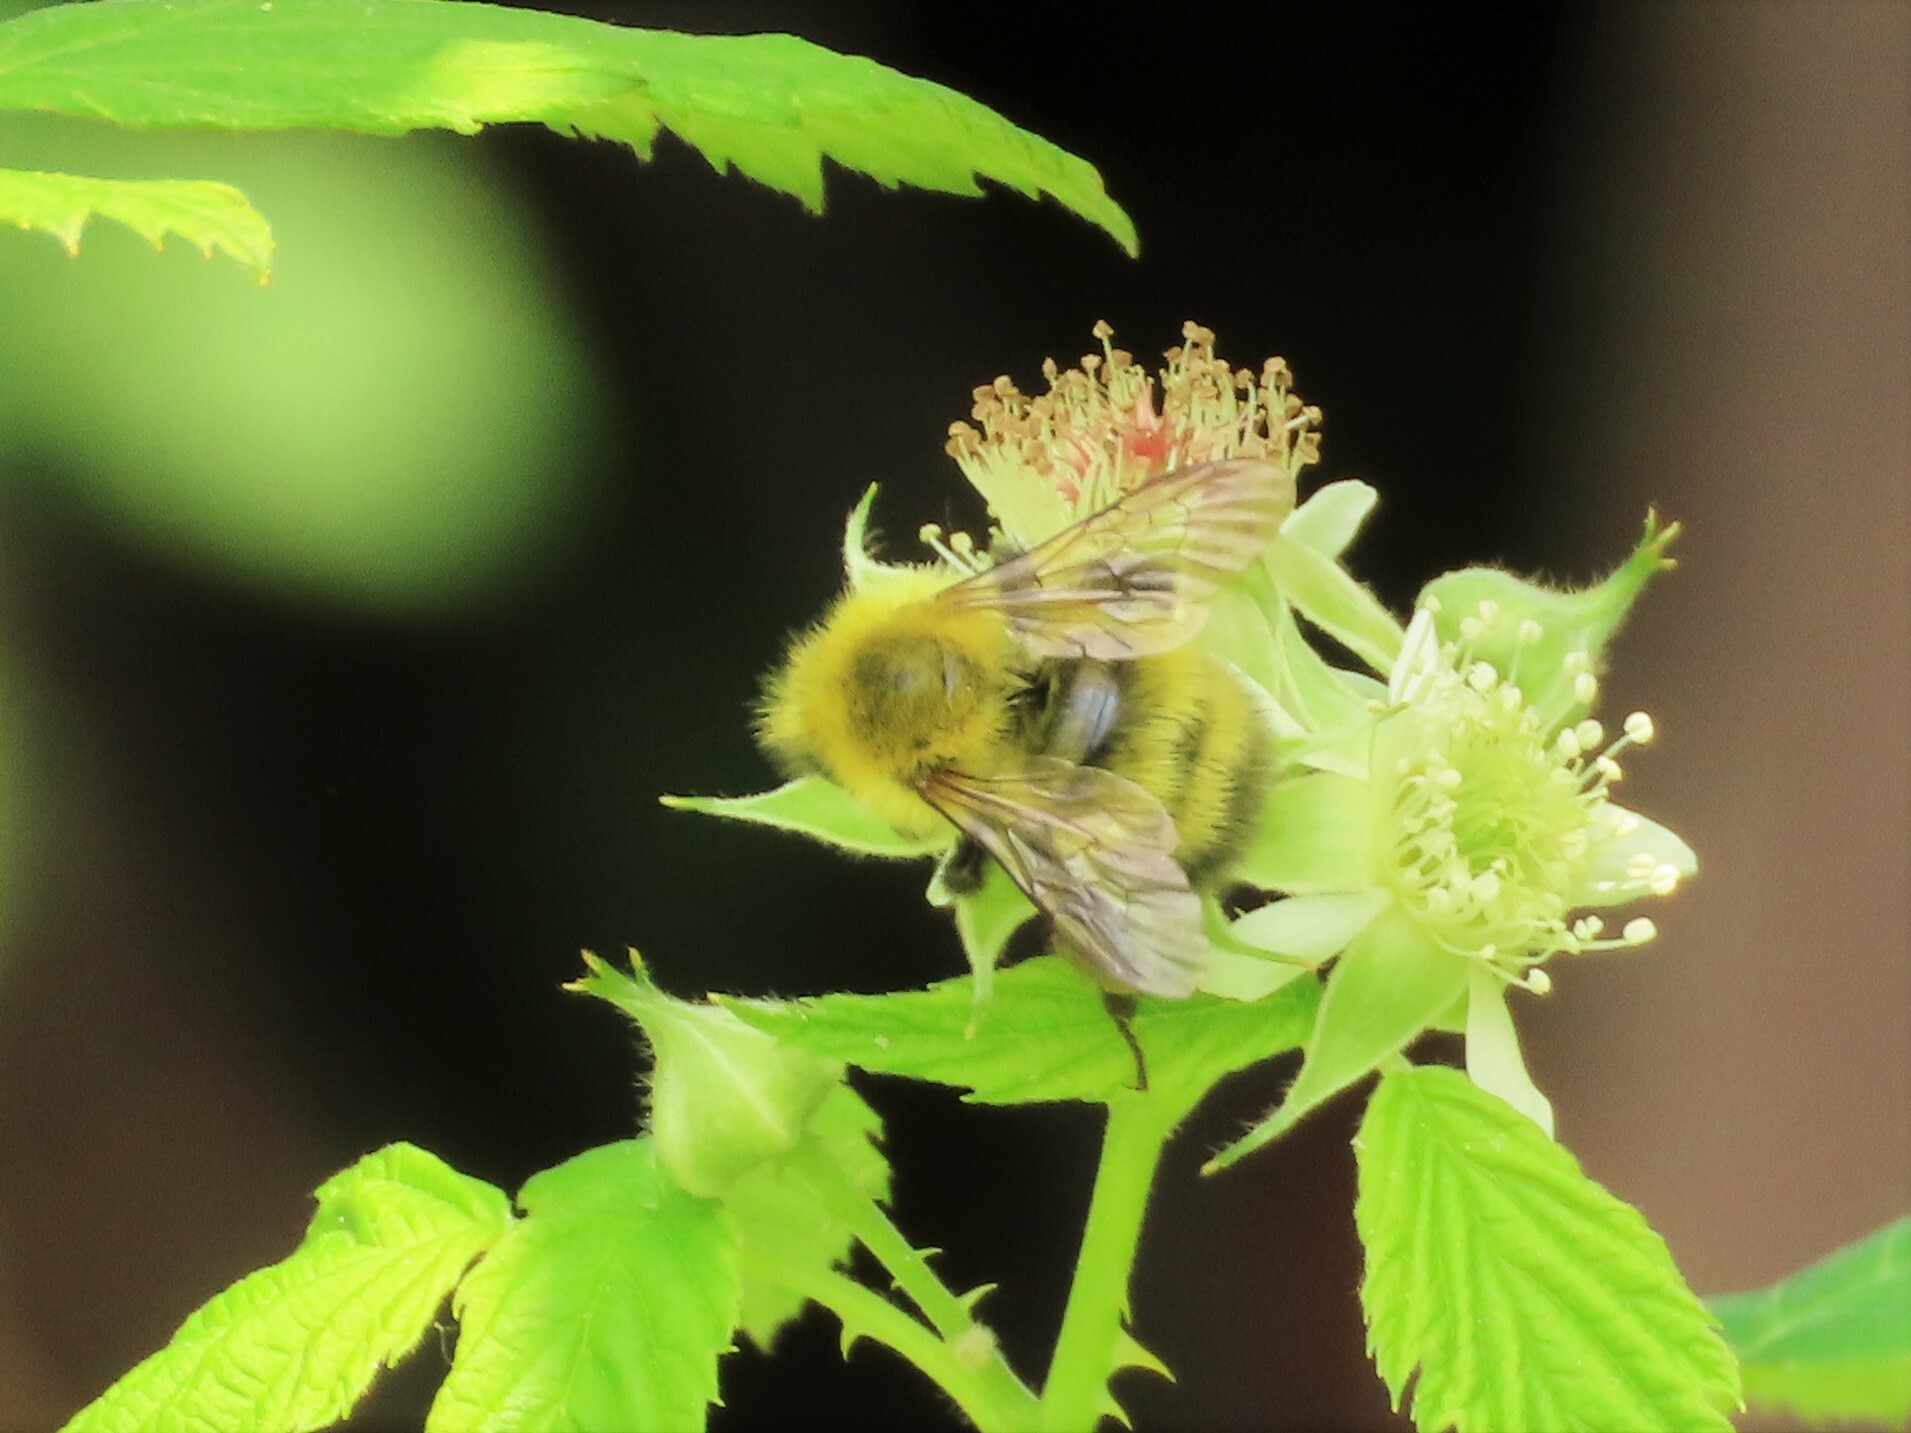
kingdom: Animalia
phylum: Arthropoda
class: Insecta
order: Hymenoptera
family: Apidae
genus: Bombus
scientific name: Bombus perplexus
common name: Confusing bumble bee
